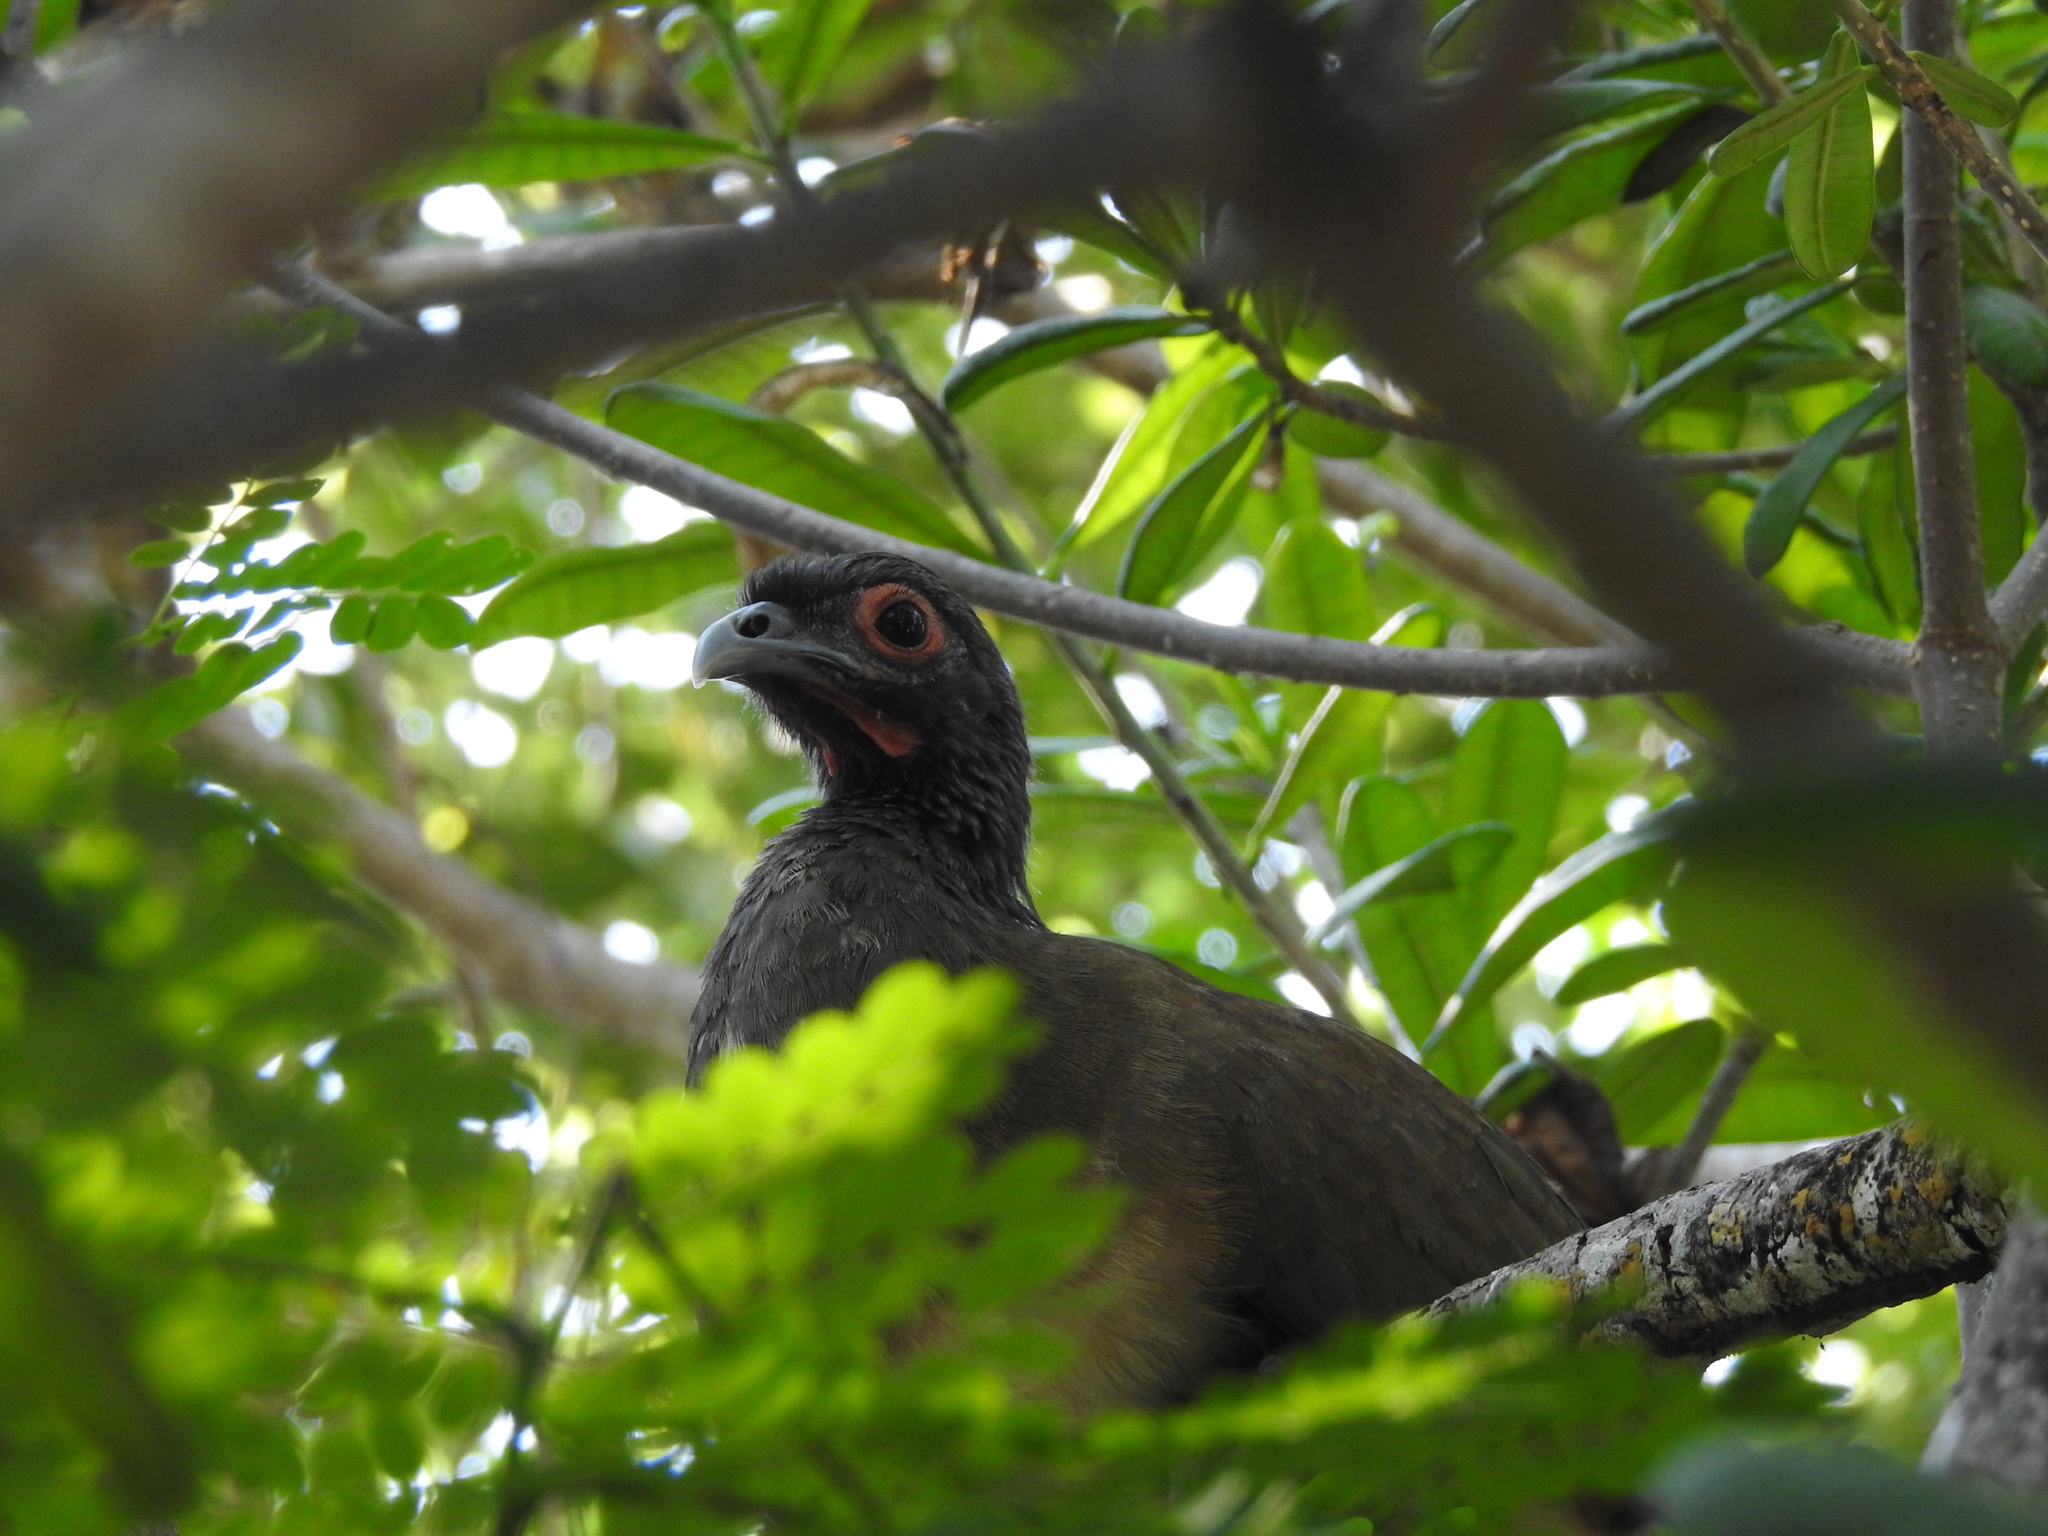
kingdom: Animalia
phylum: Chordata
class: Aves
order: Galliformes
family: Cracidae
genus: Ortalis
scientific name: Ortalis poliocephala
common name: West mexican chachalaca
